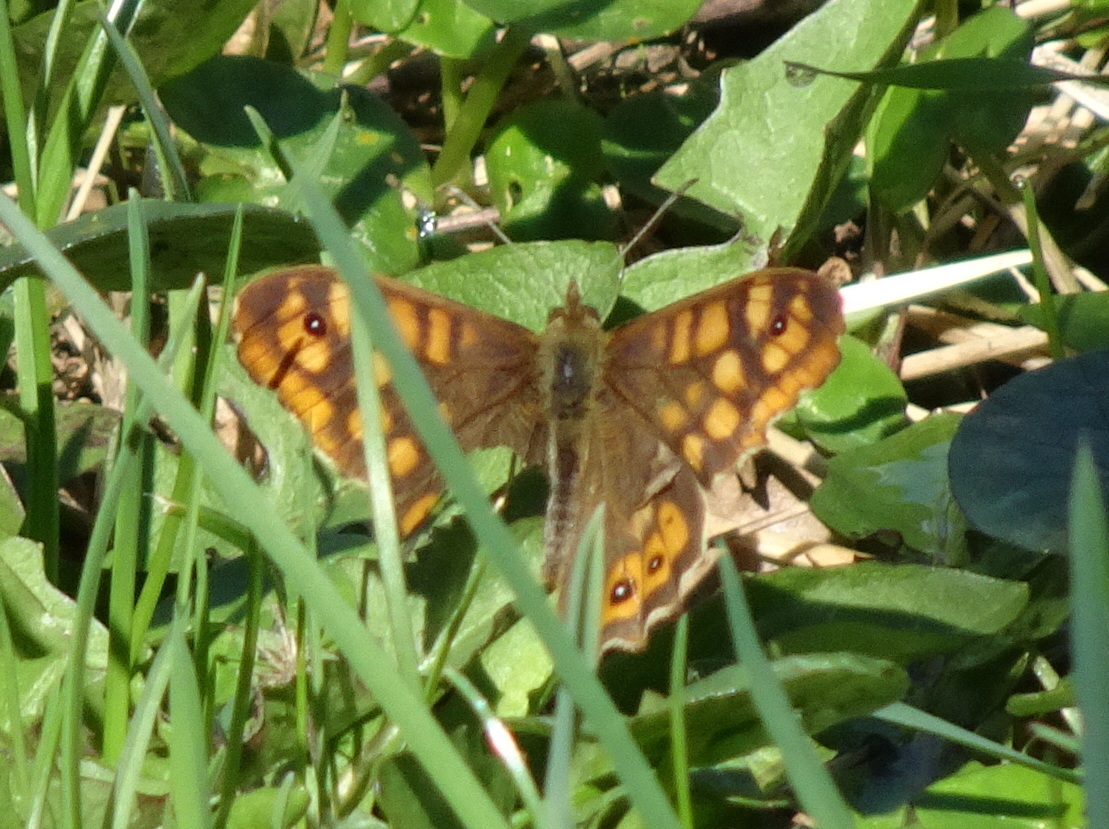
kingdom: Animalia
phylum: Arthropoda
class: Insecta
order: Lepidoptera
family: Nymphalidae
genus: Pararge
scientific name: Pararge aegeria
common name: Speckled wood
